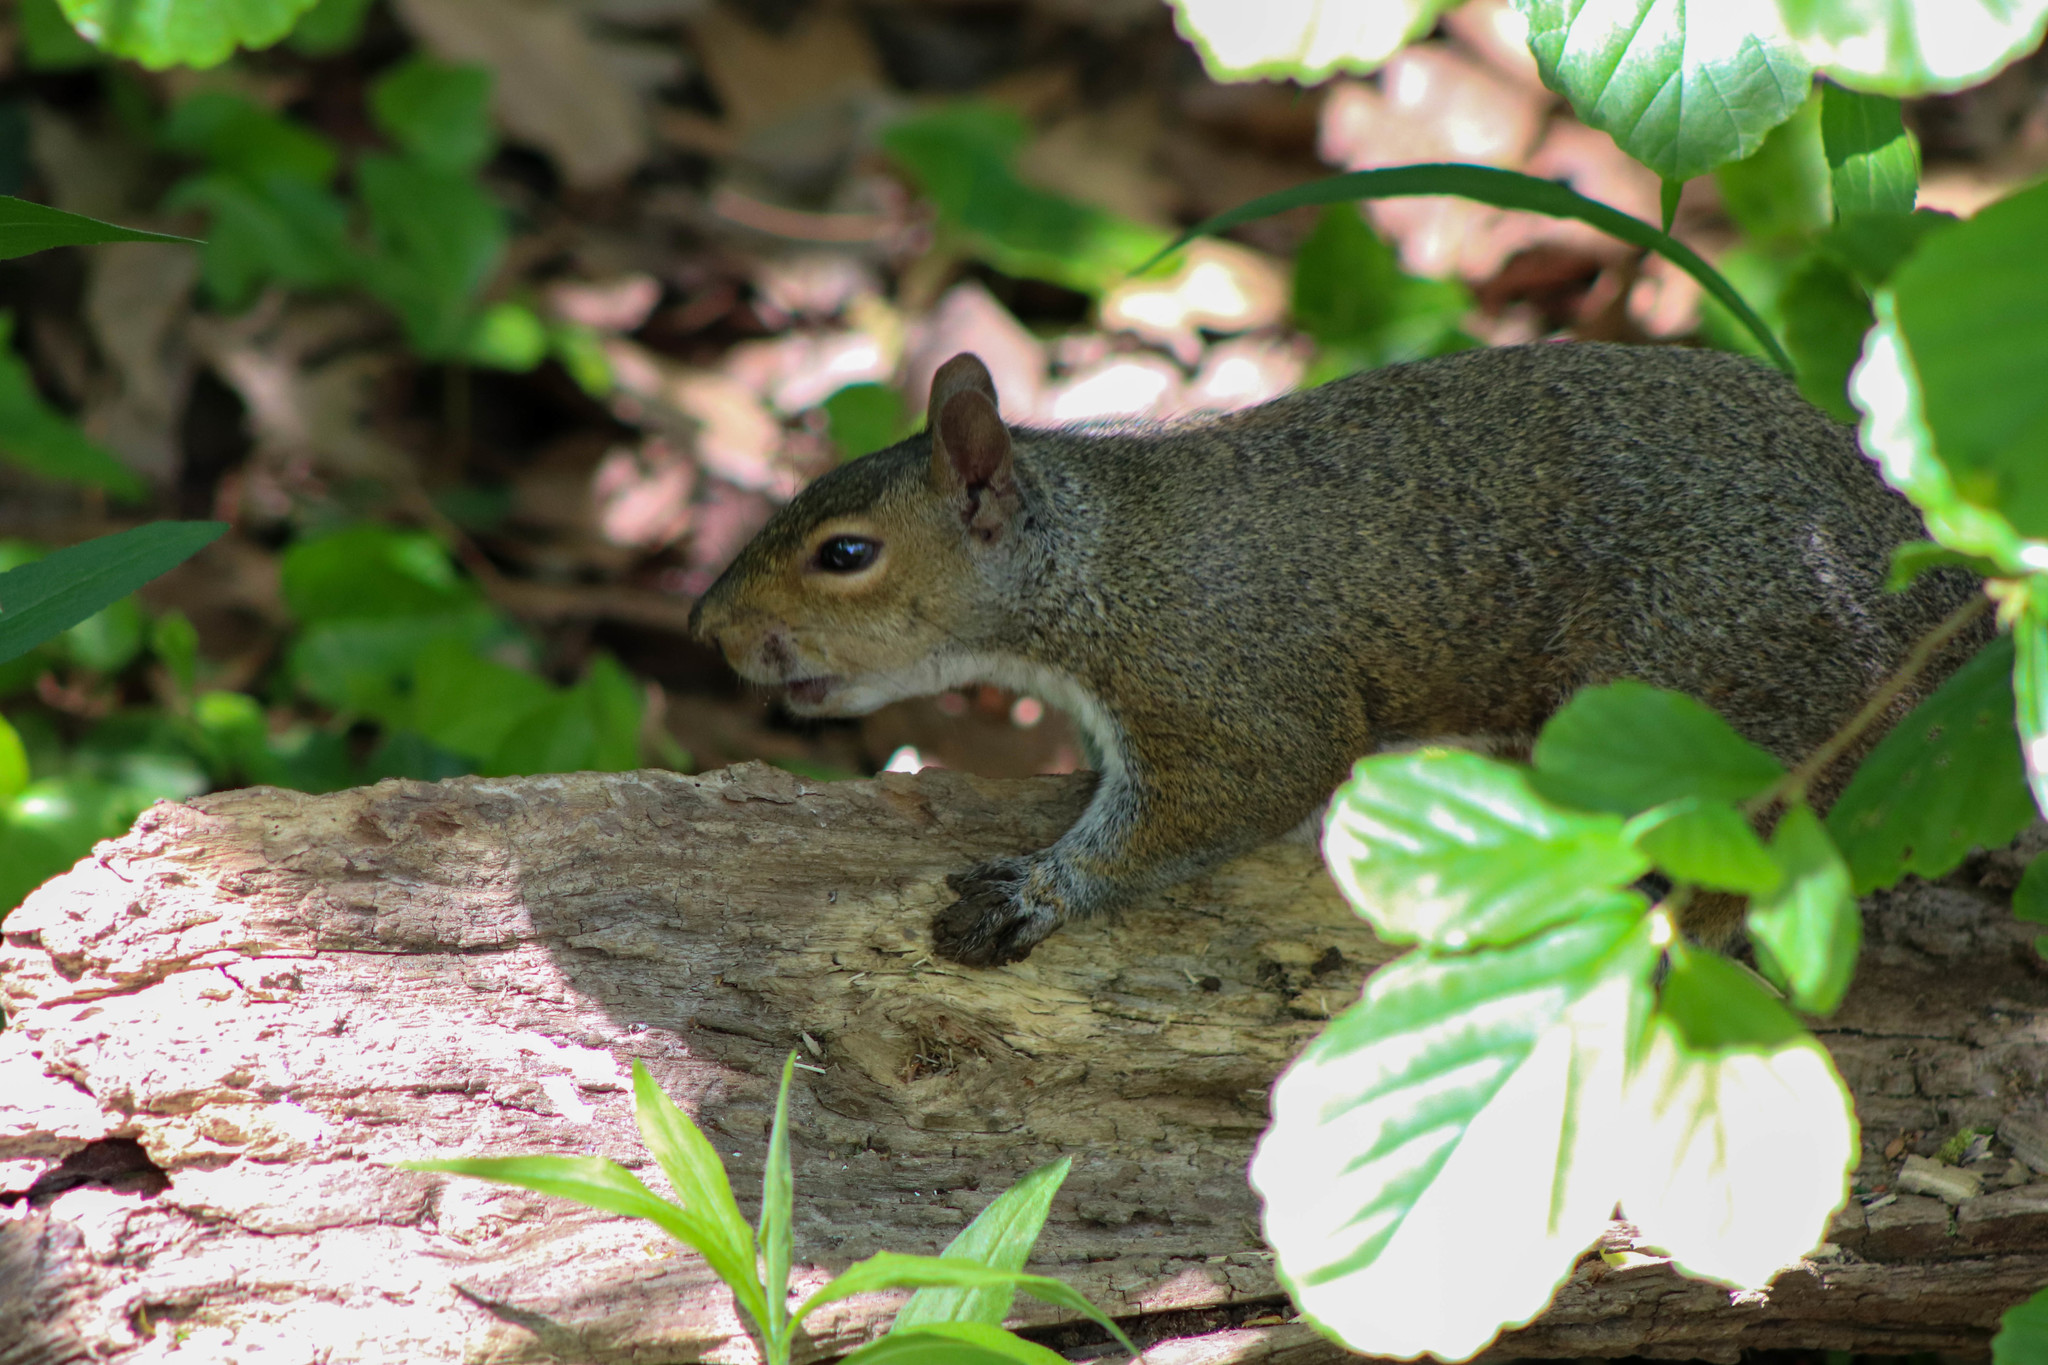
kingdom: Animalia
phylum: Chordata
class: Mammalia
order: Rodentia
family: Sciuridae
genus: Sciurus
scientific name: Sciurus carolinensis
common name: Eastern gray squirrel
